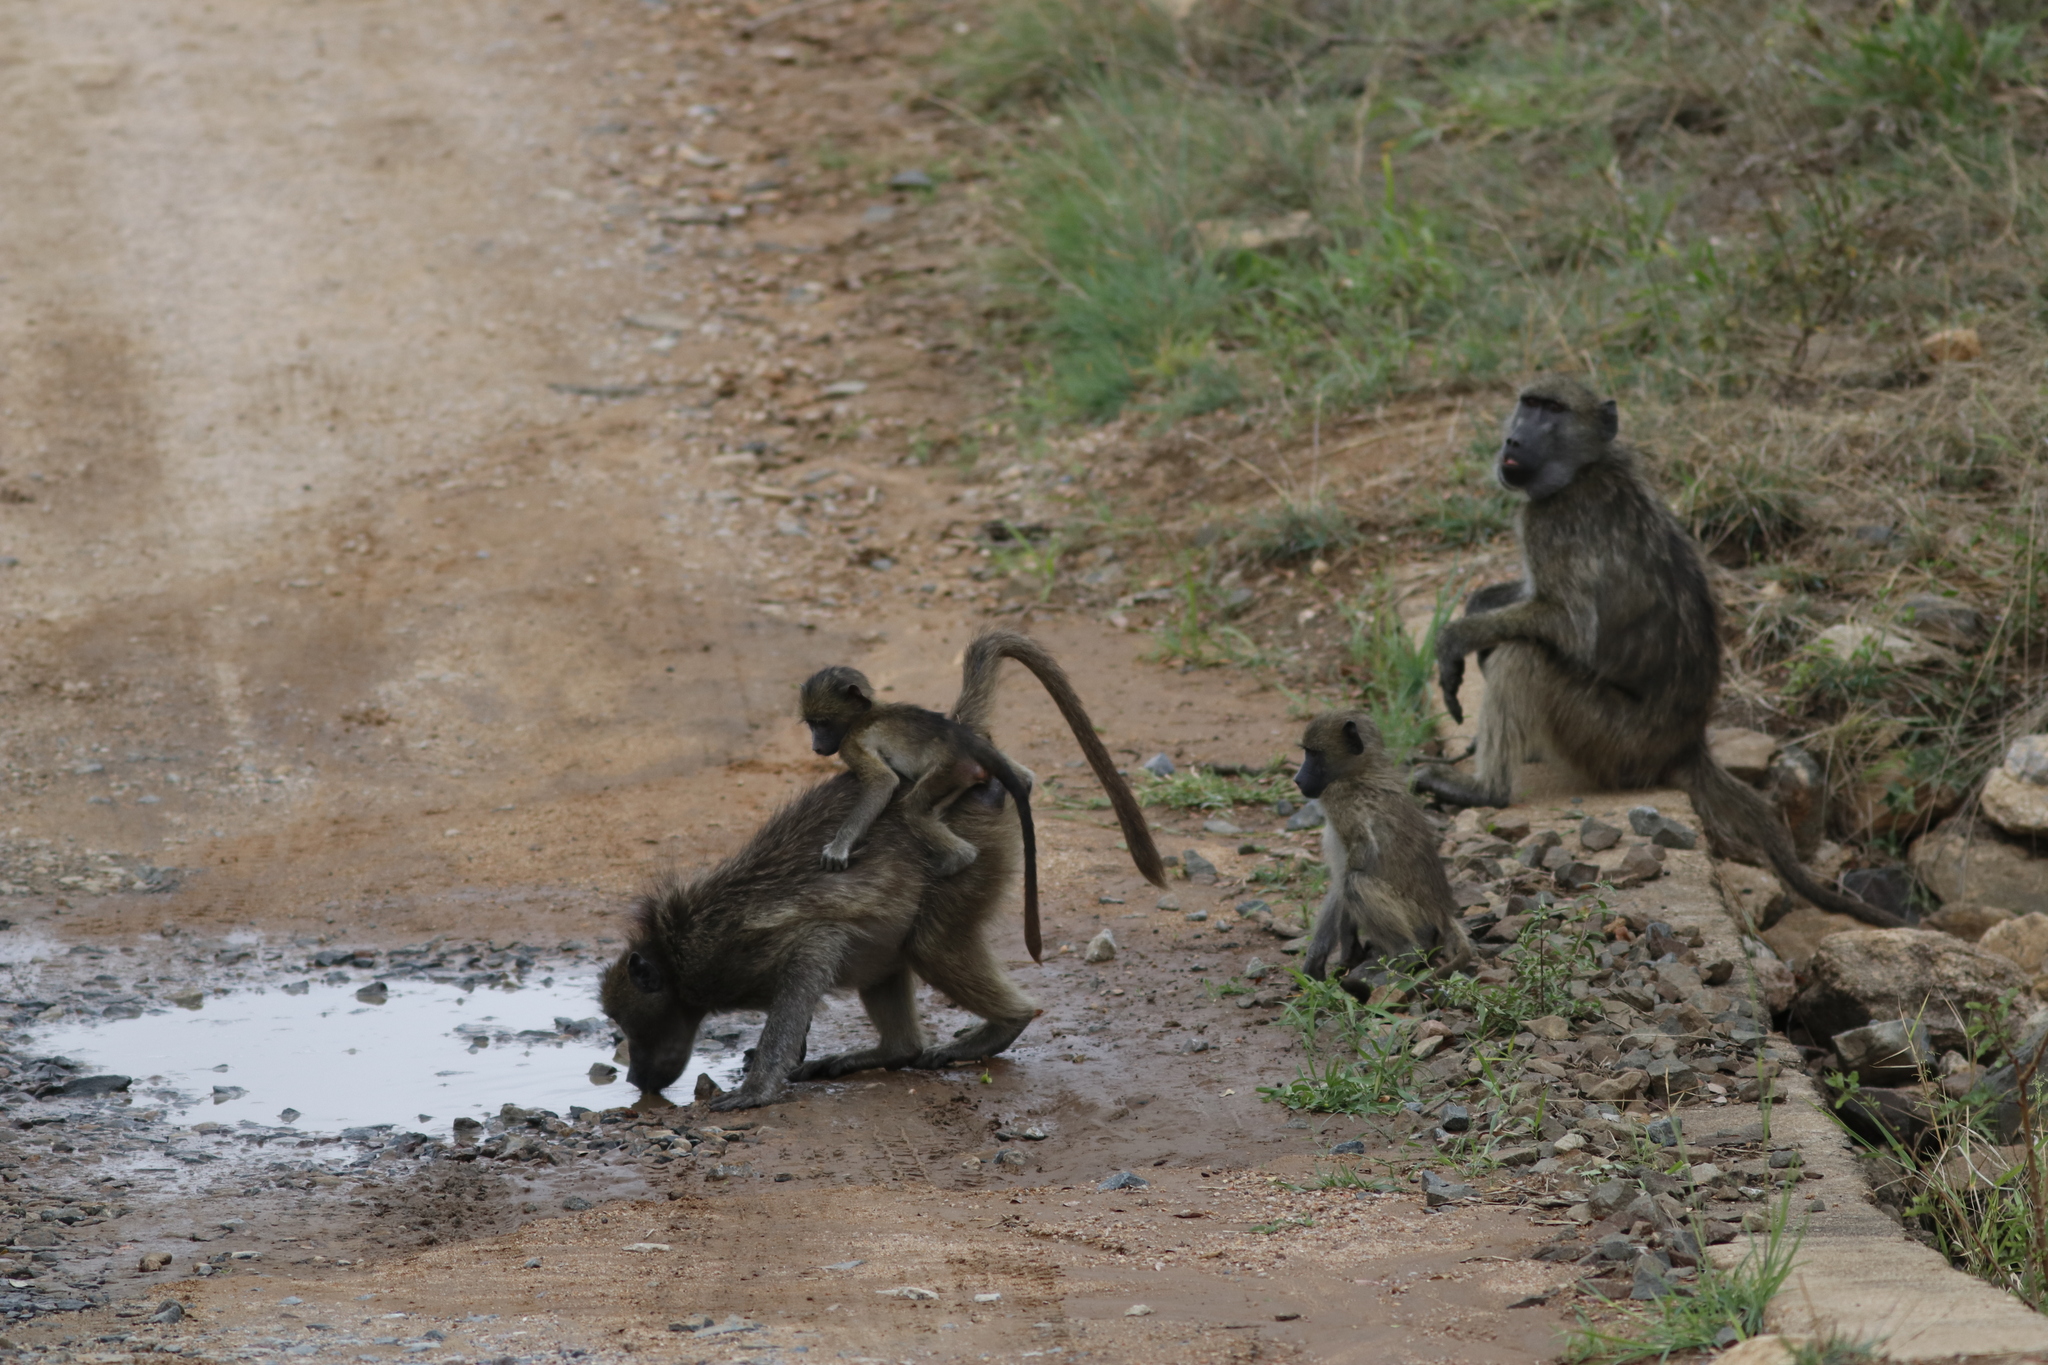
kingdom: Animalia
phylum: Chordata
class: Mammalia
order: Primates
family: Cercopithecidae
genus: Papio
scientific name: Papio ursinus
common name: Chacma baboon
